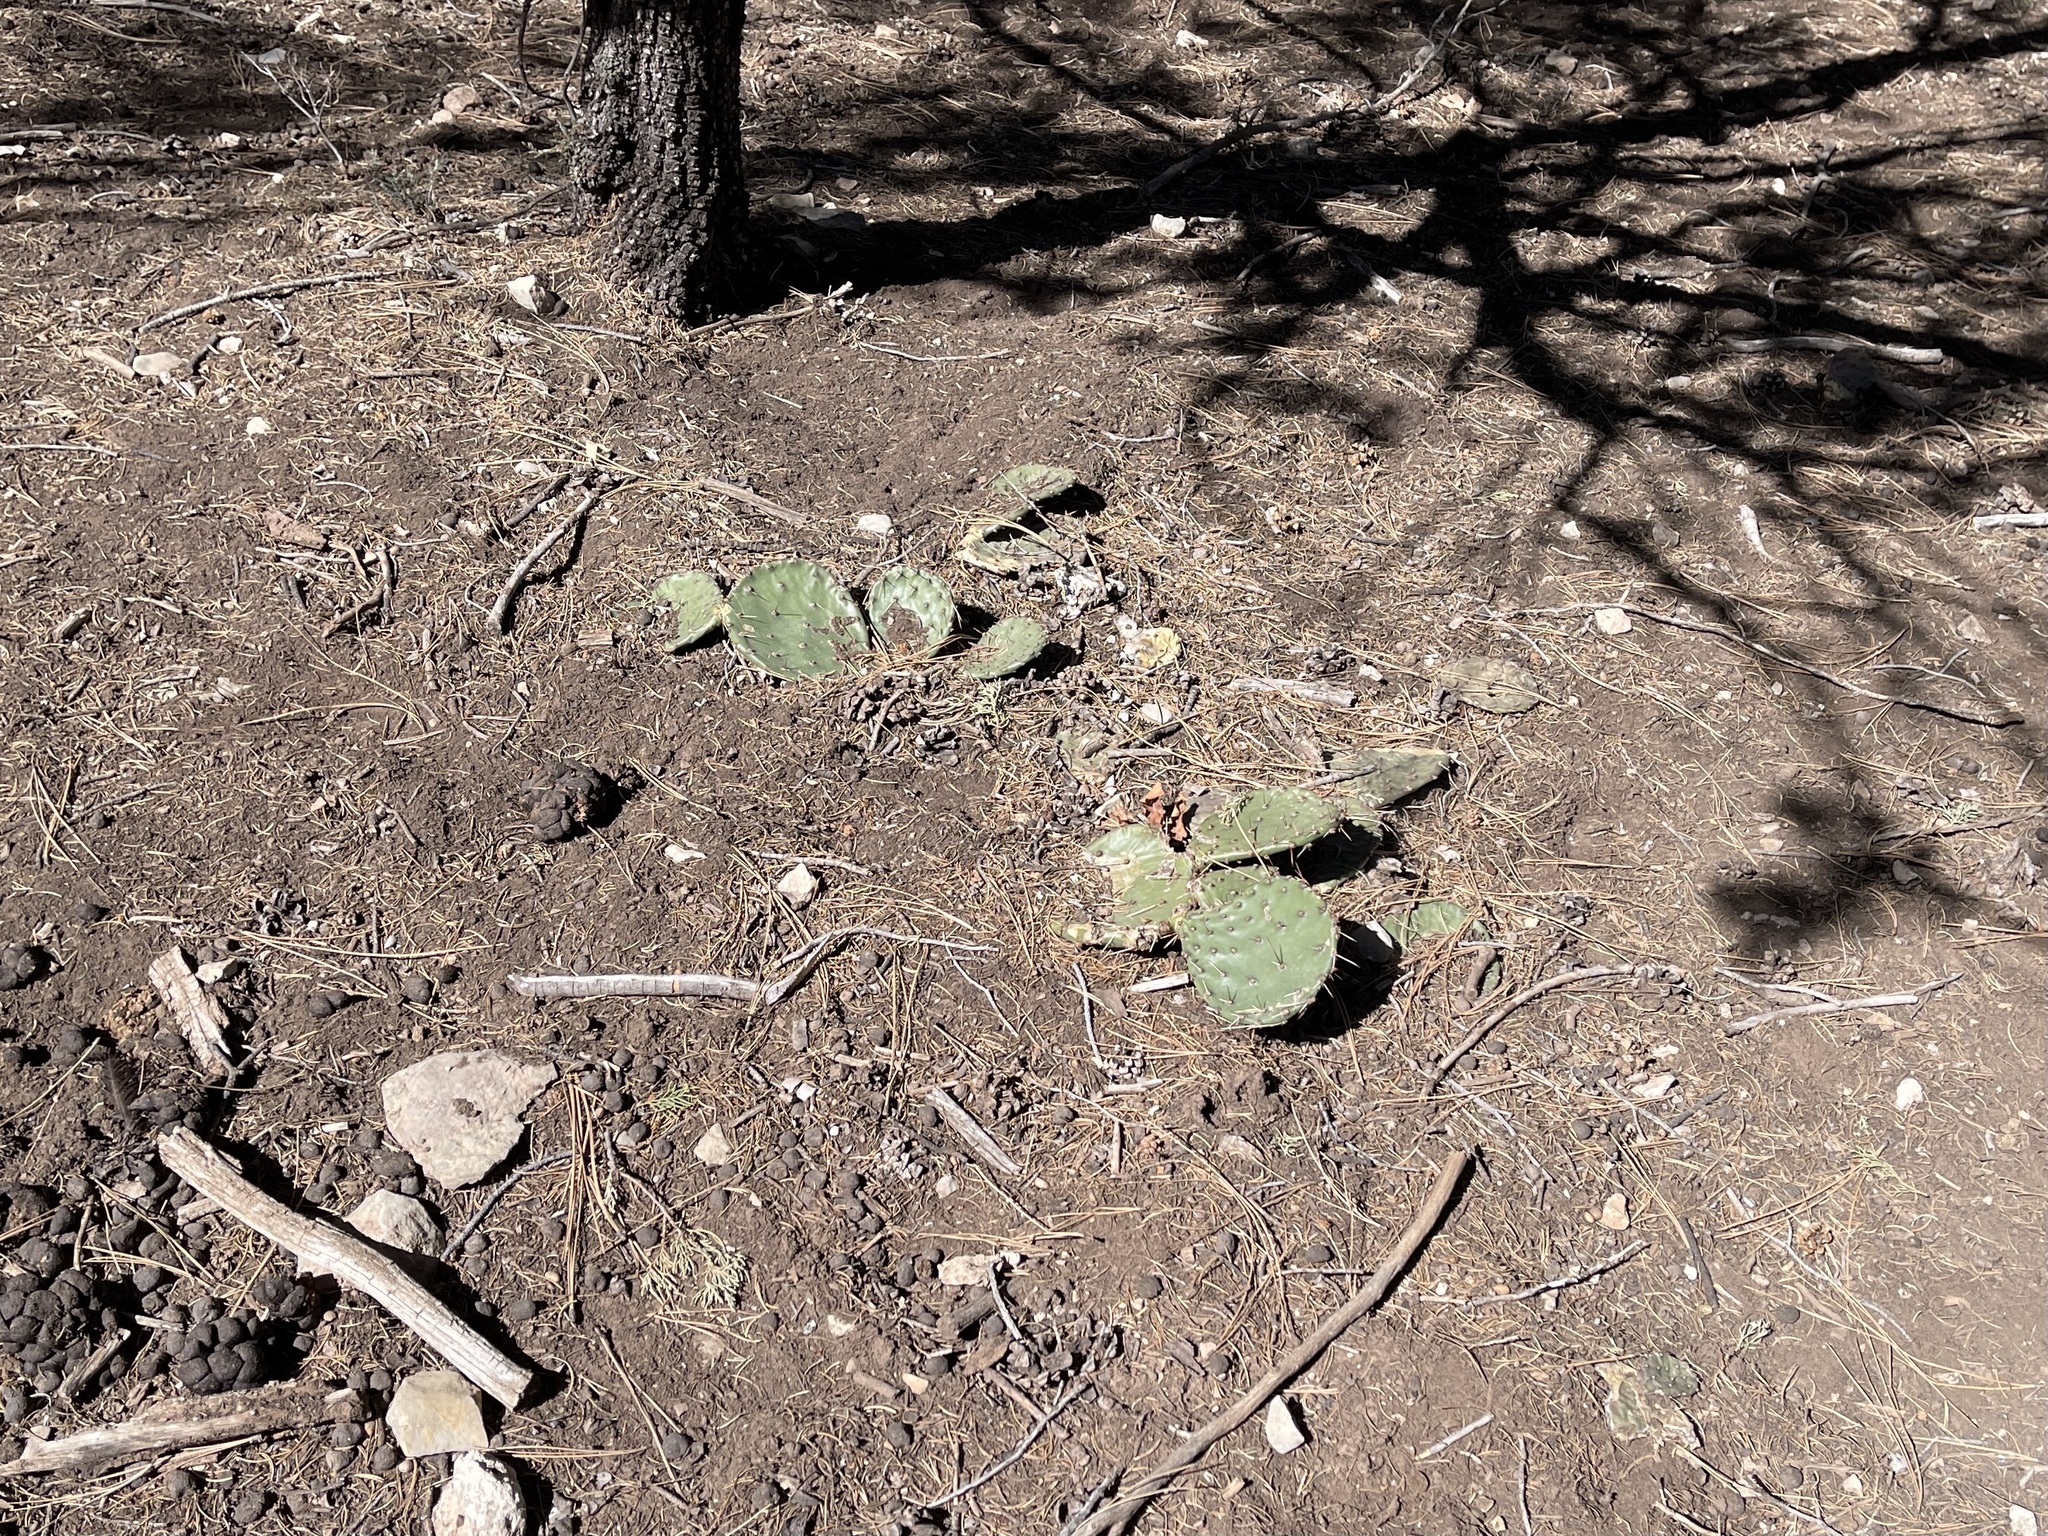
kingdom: Plantae
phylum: Tracheophyta
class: Magnoliopsida
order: Caryophyllales
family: Cactaceae
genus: Opuntia
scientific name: Opuntia phaeacantha
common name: New mexico prickly-pear
